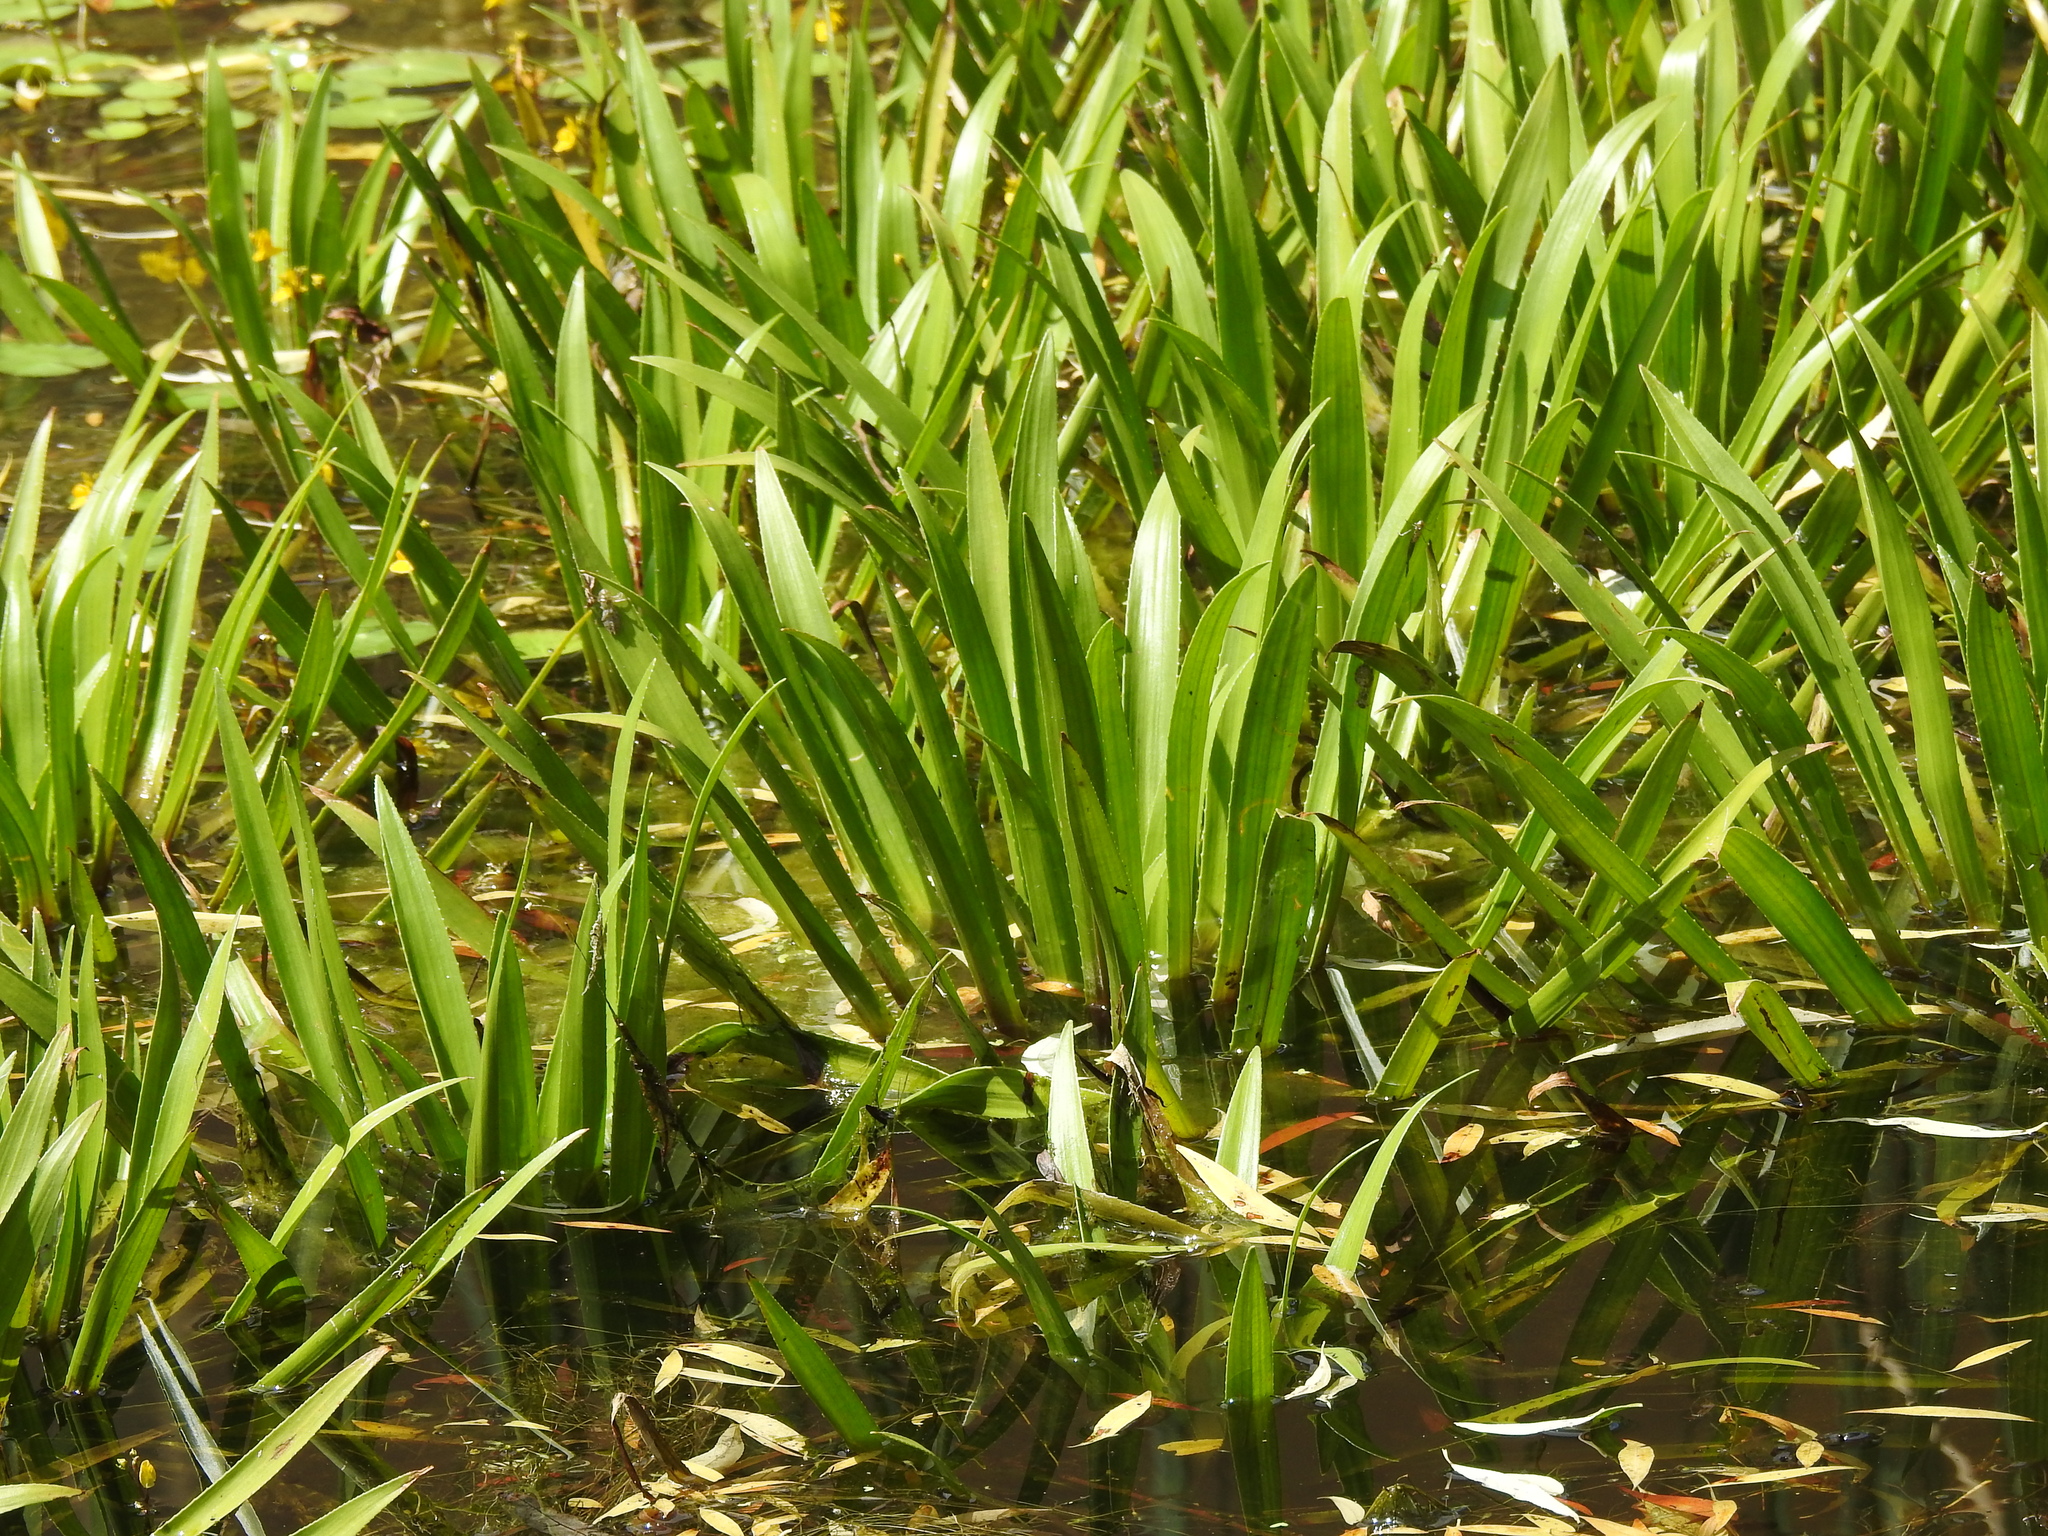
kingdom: Plantae
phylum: Tracheophyta
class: Liliopsida
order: Alismatales
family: Hydrocharitaceae
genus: Stratiotes
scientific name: Stratiotes aloides
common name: Water-soldier
